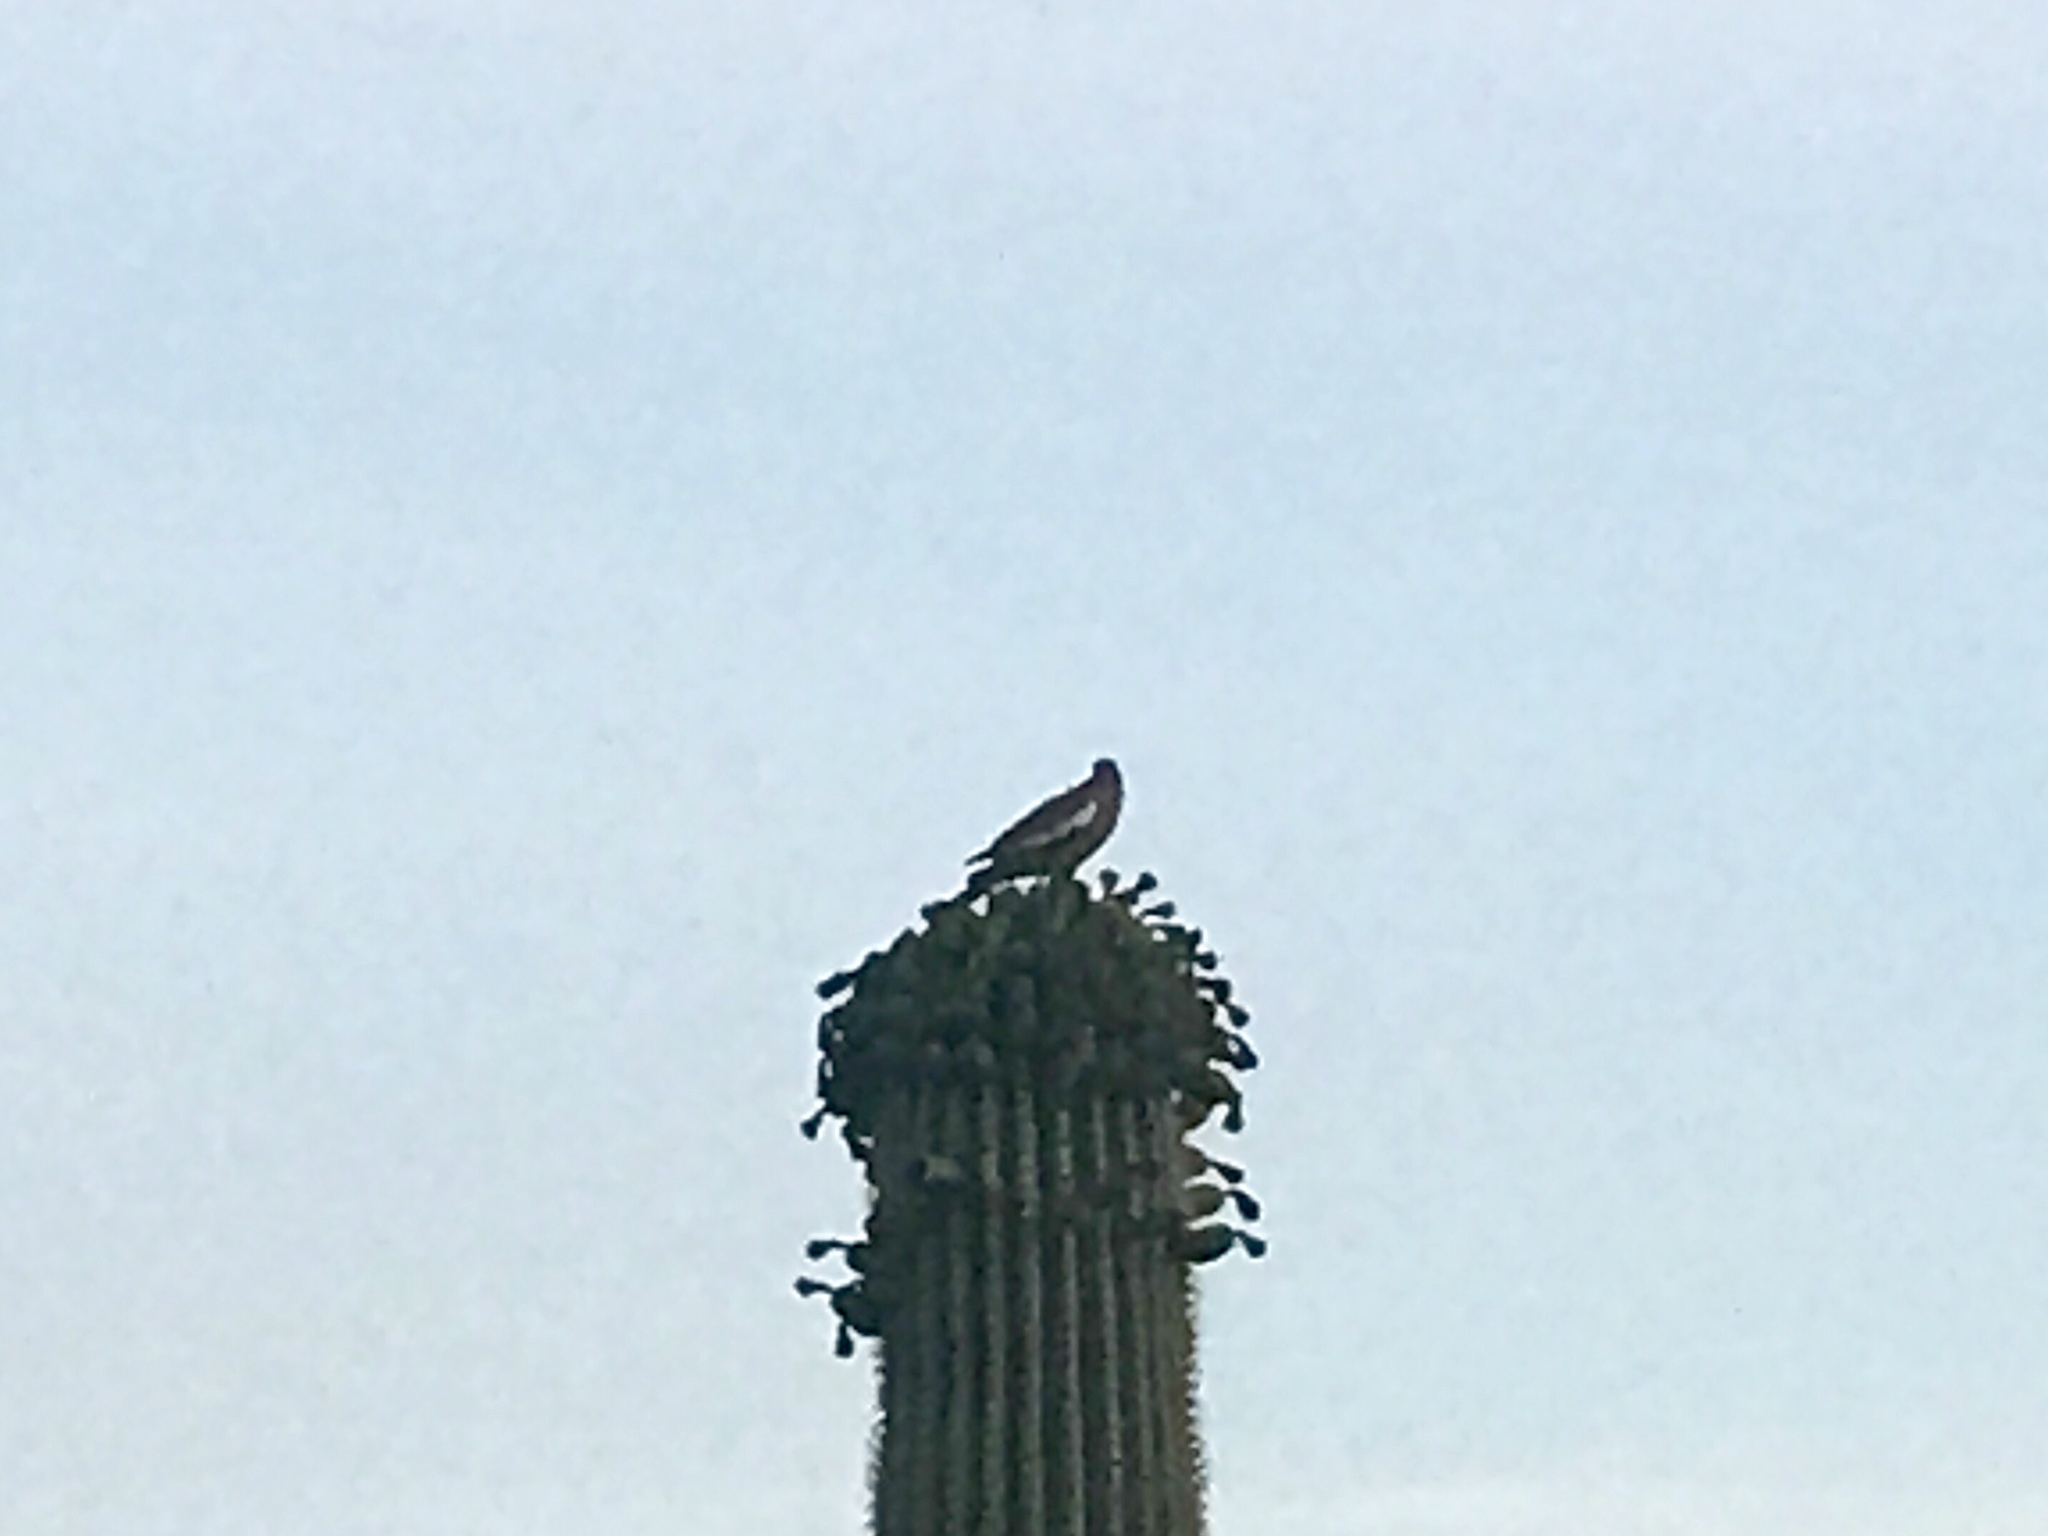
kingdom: Animalia
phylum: Chordata
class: Aves
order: Columbiformes
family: Columbidae
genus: Zenaida
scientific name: Zenaida asiatica
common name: White-winged dove
